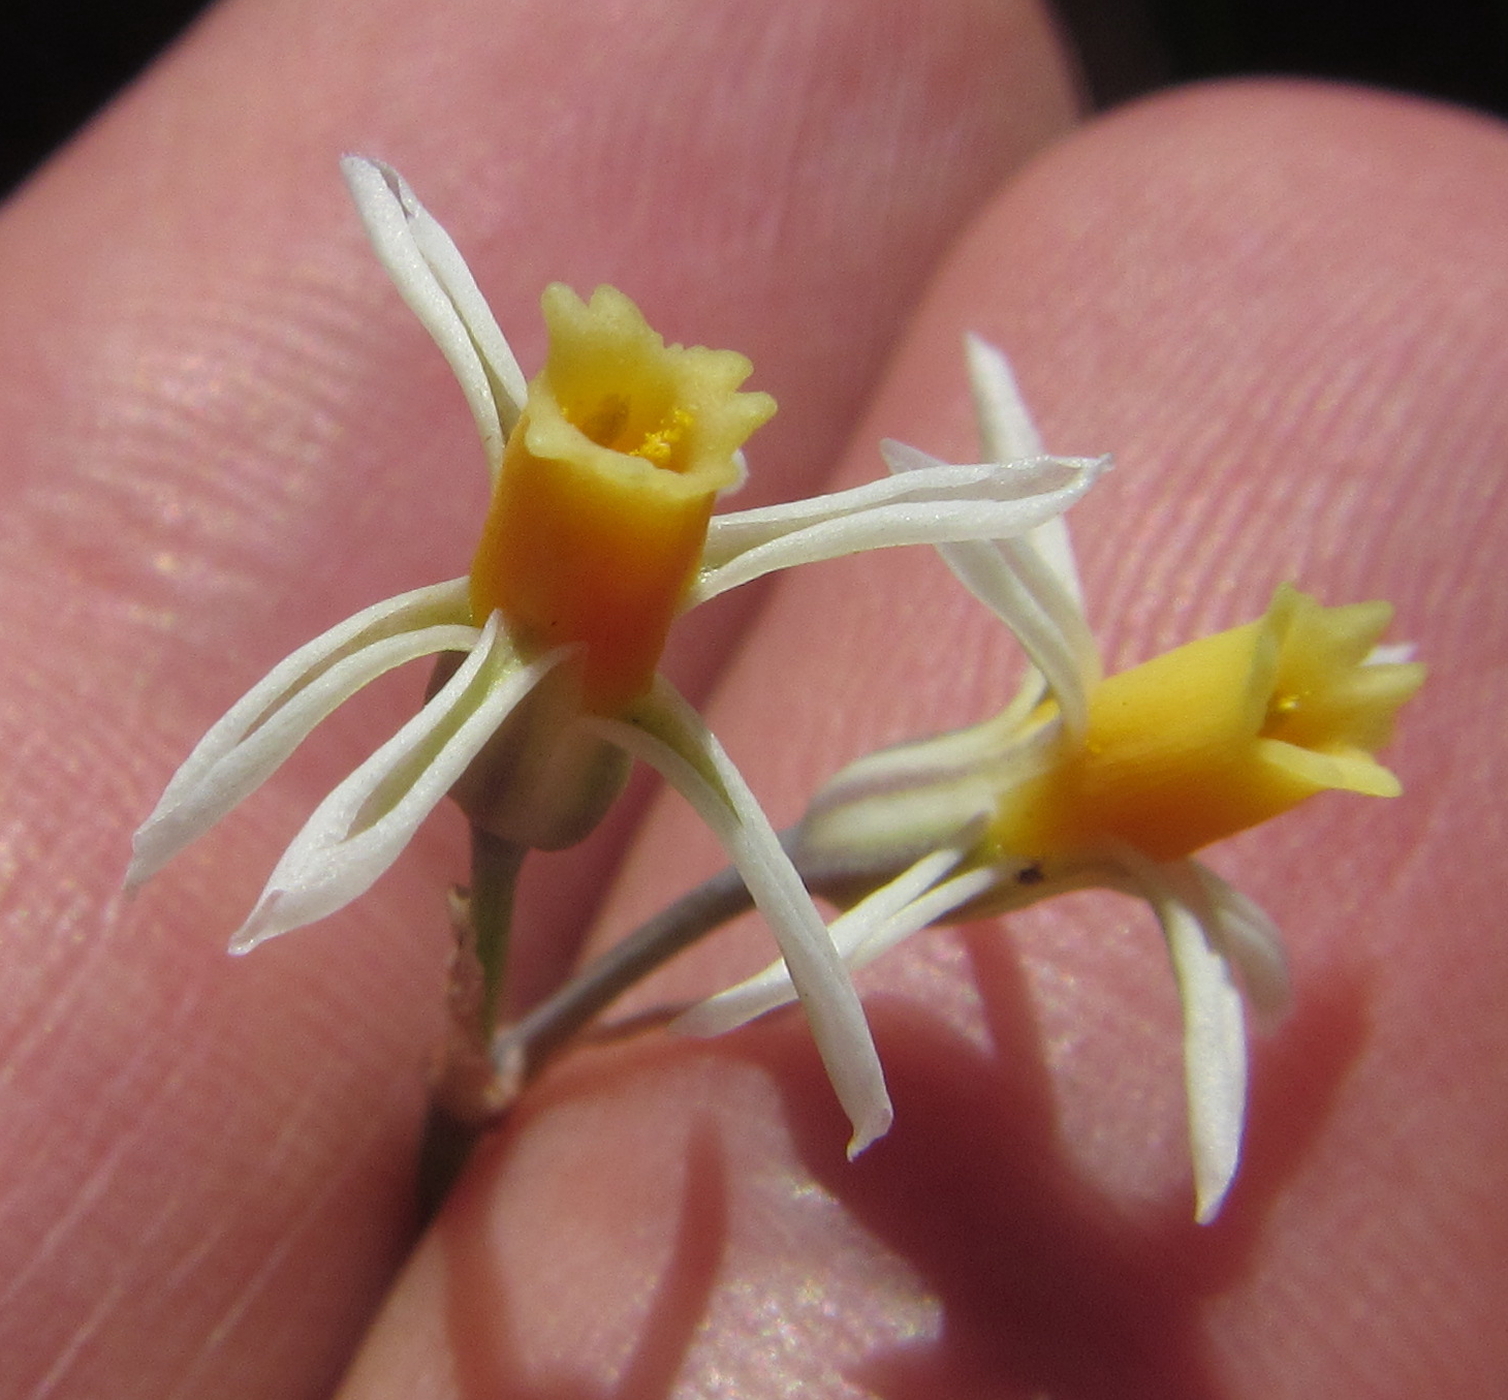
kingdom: Plantae
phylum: Tracheophyta
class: Liliopsida
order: Asparagales
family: Amaryllidaceae
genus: Tulbaghia
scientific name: Tulbaghia leucantha
